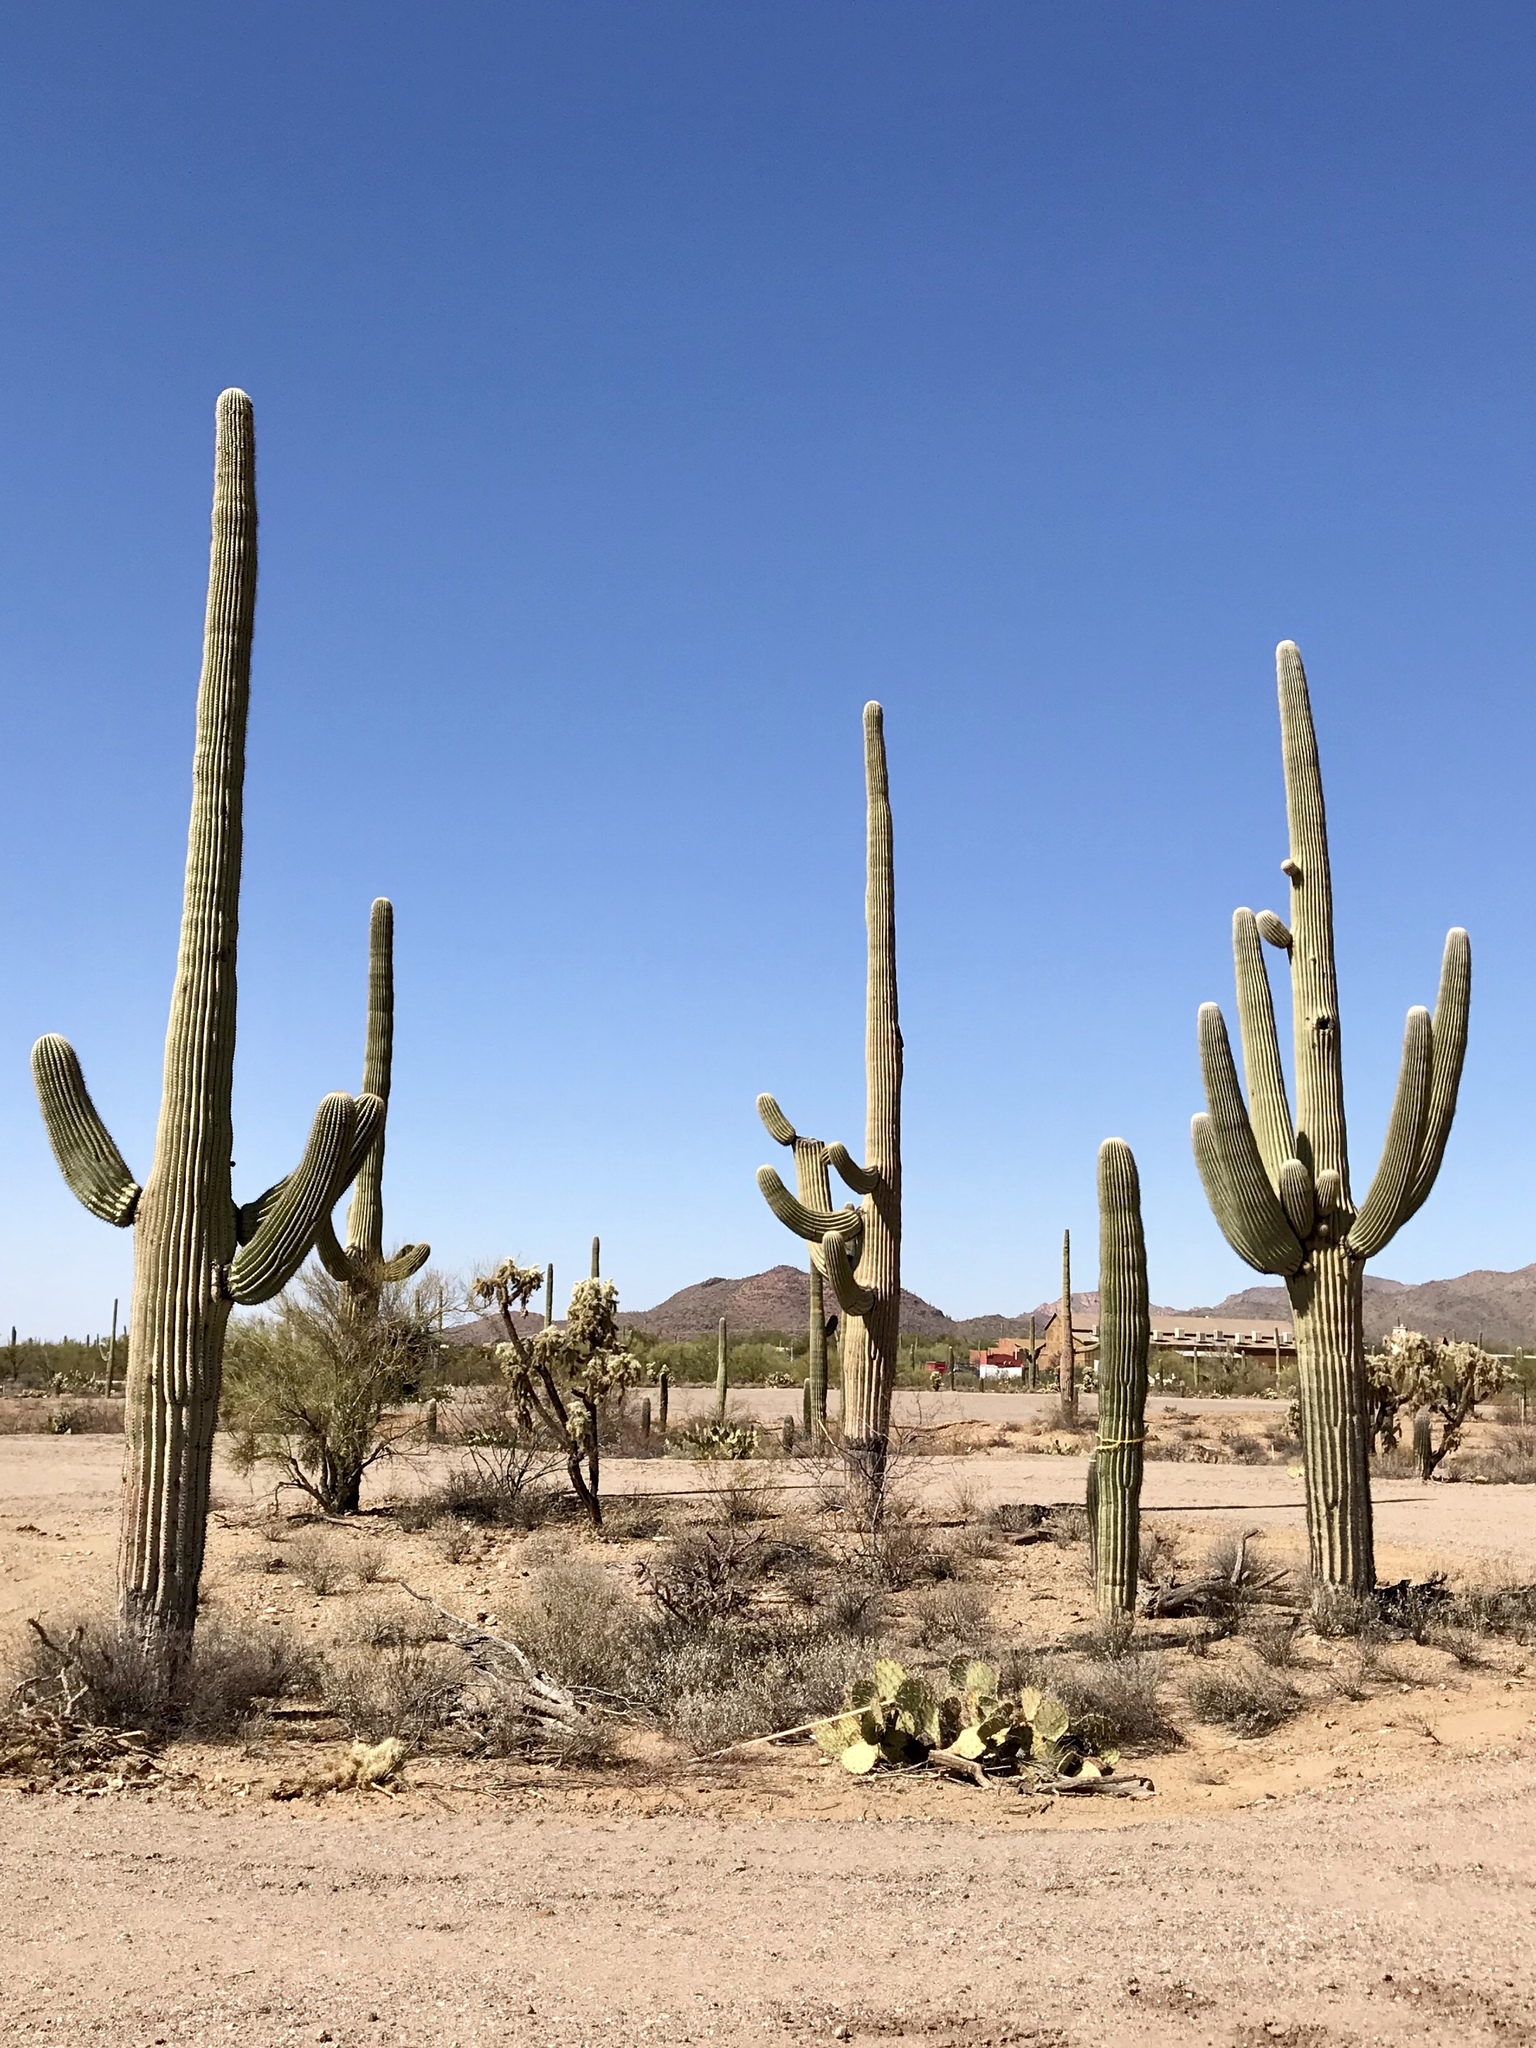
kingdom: Plantae
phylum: Tracheophyta
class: Magnoliopsida
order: Caryophyllales
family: Cactaceae
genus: Carnegiea
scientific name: Carnegiea gigantea
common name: Saguaro
